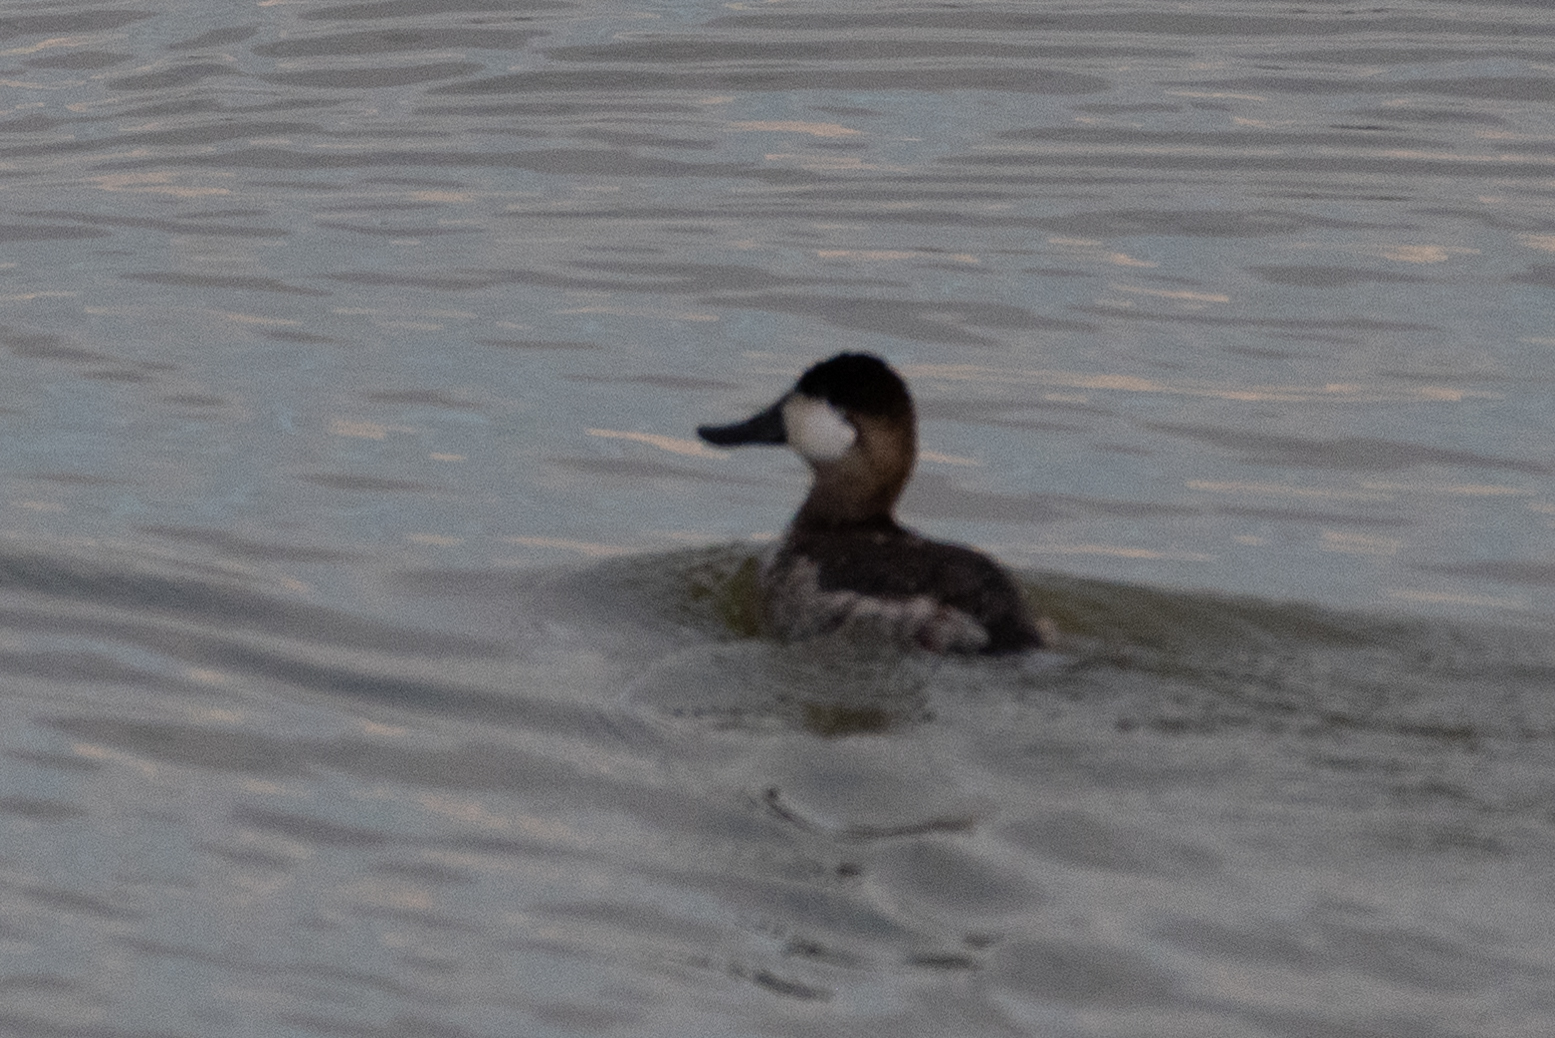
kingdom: Animalia
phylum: Chordata
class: Aves
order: Anseriformes
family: Anatidae
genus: Oxyura
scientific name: Oxyura jamaicensis
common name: Ruddy duck
